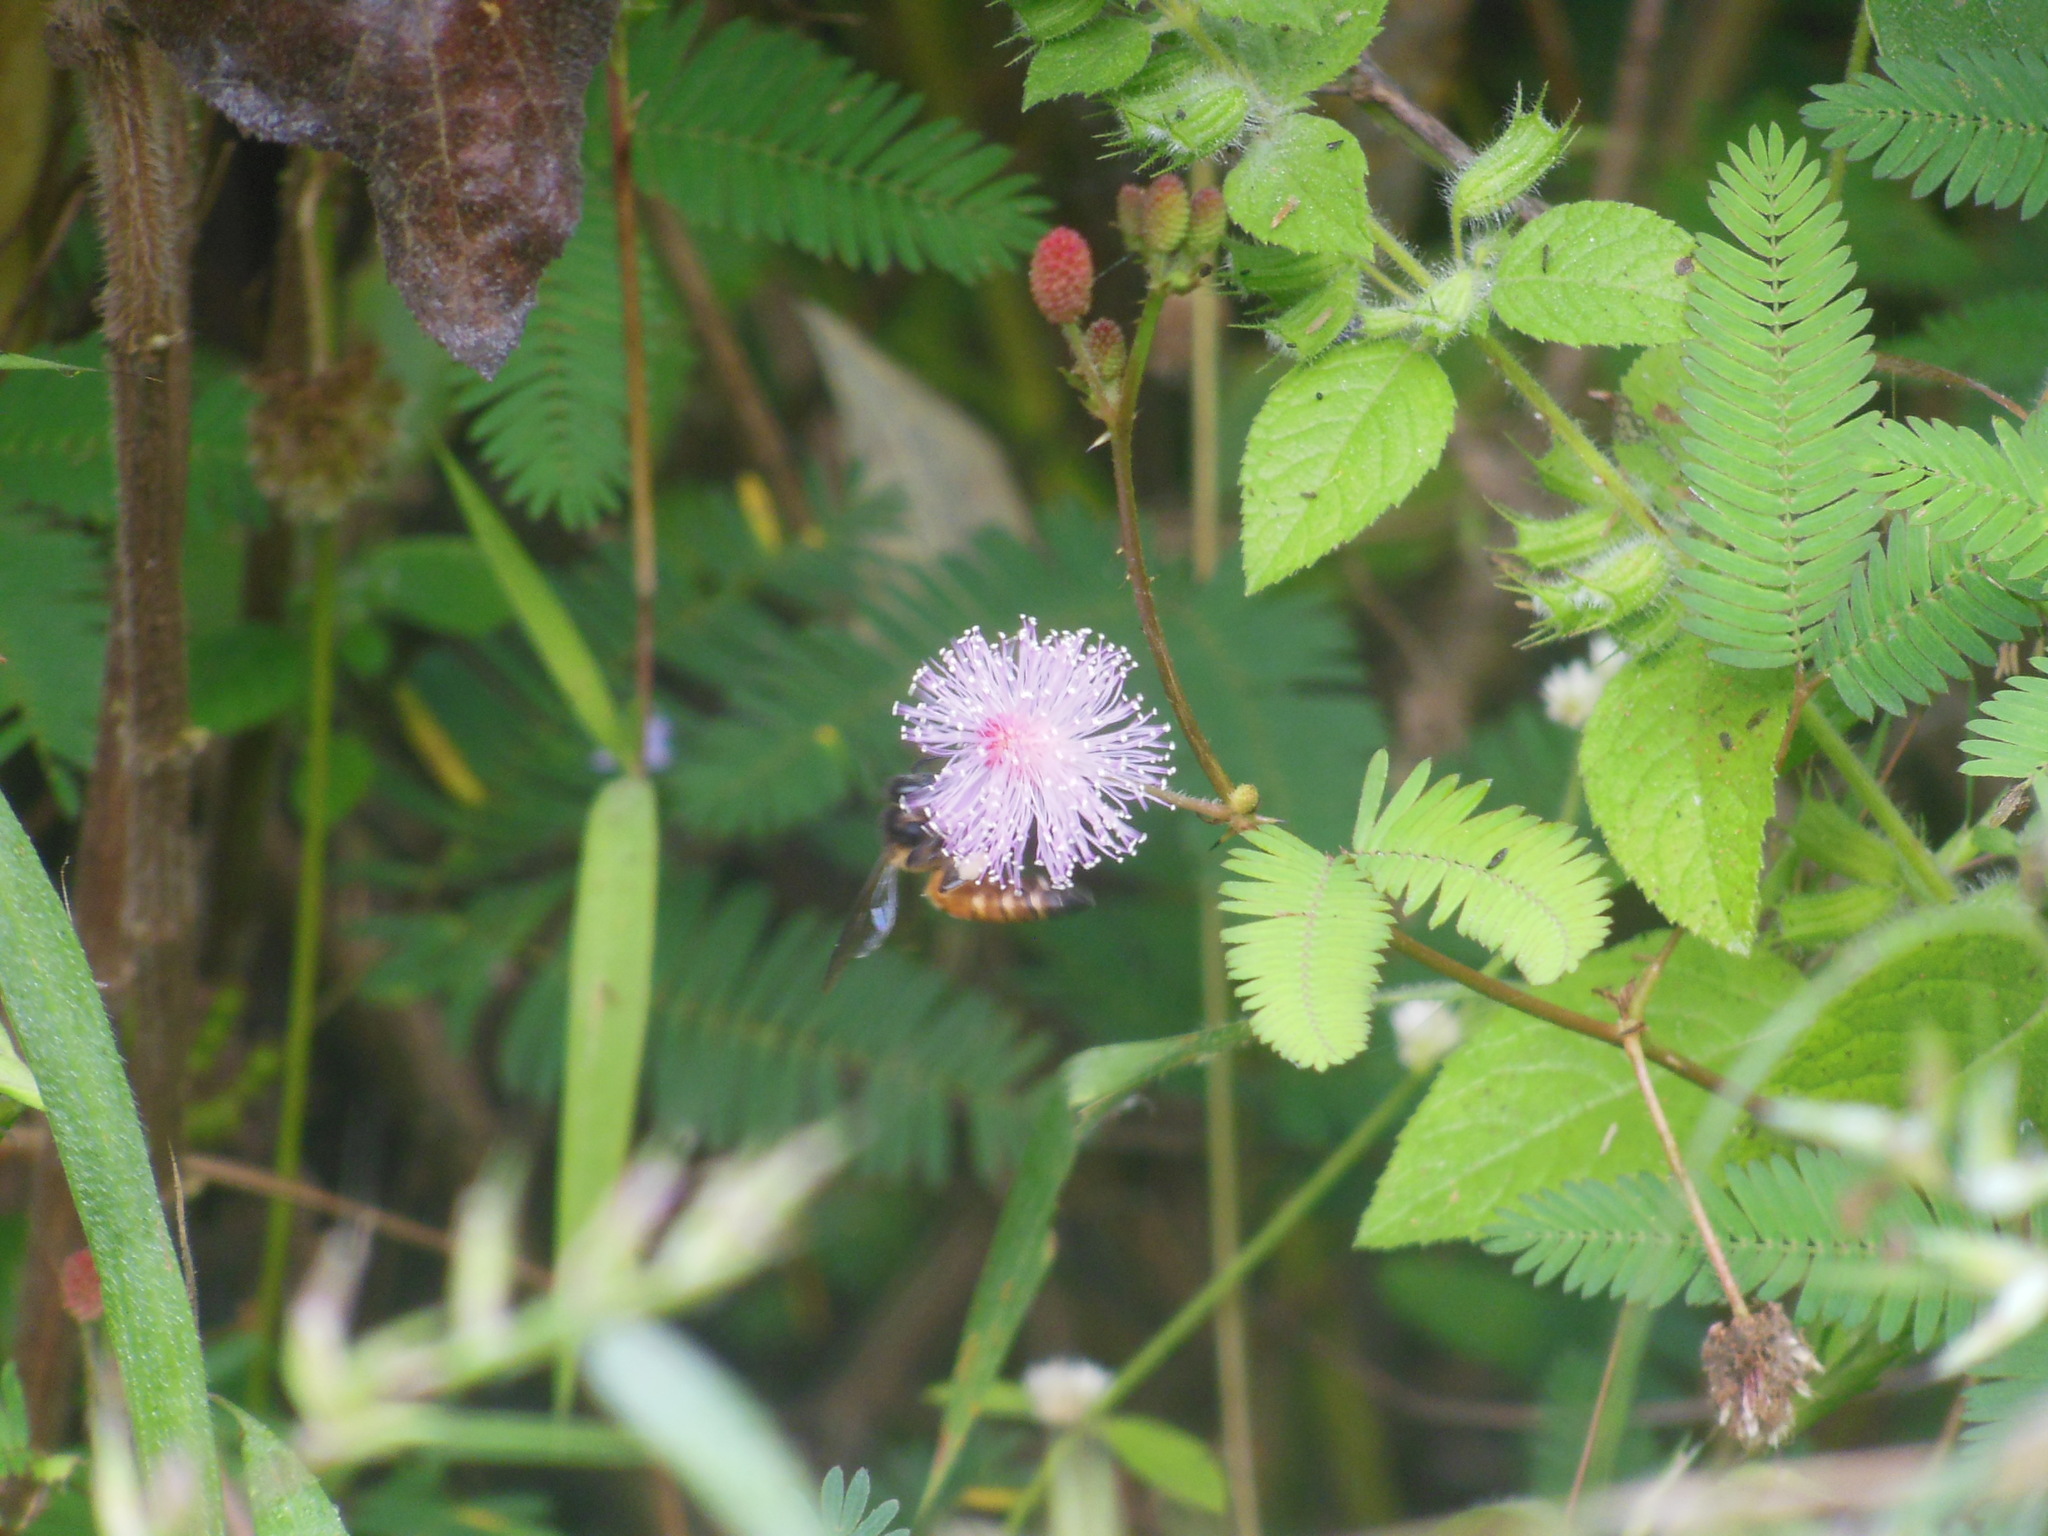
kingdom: Animalia
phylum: Arthropoda
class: Insecta
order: Hymenoptera
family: Apidae
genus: Apis
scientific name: Apis dorsata
